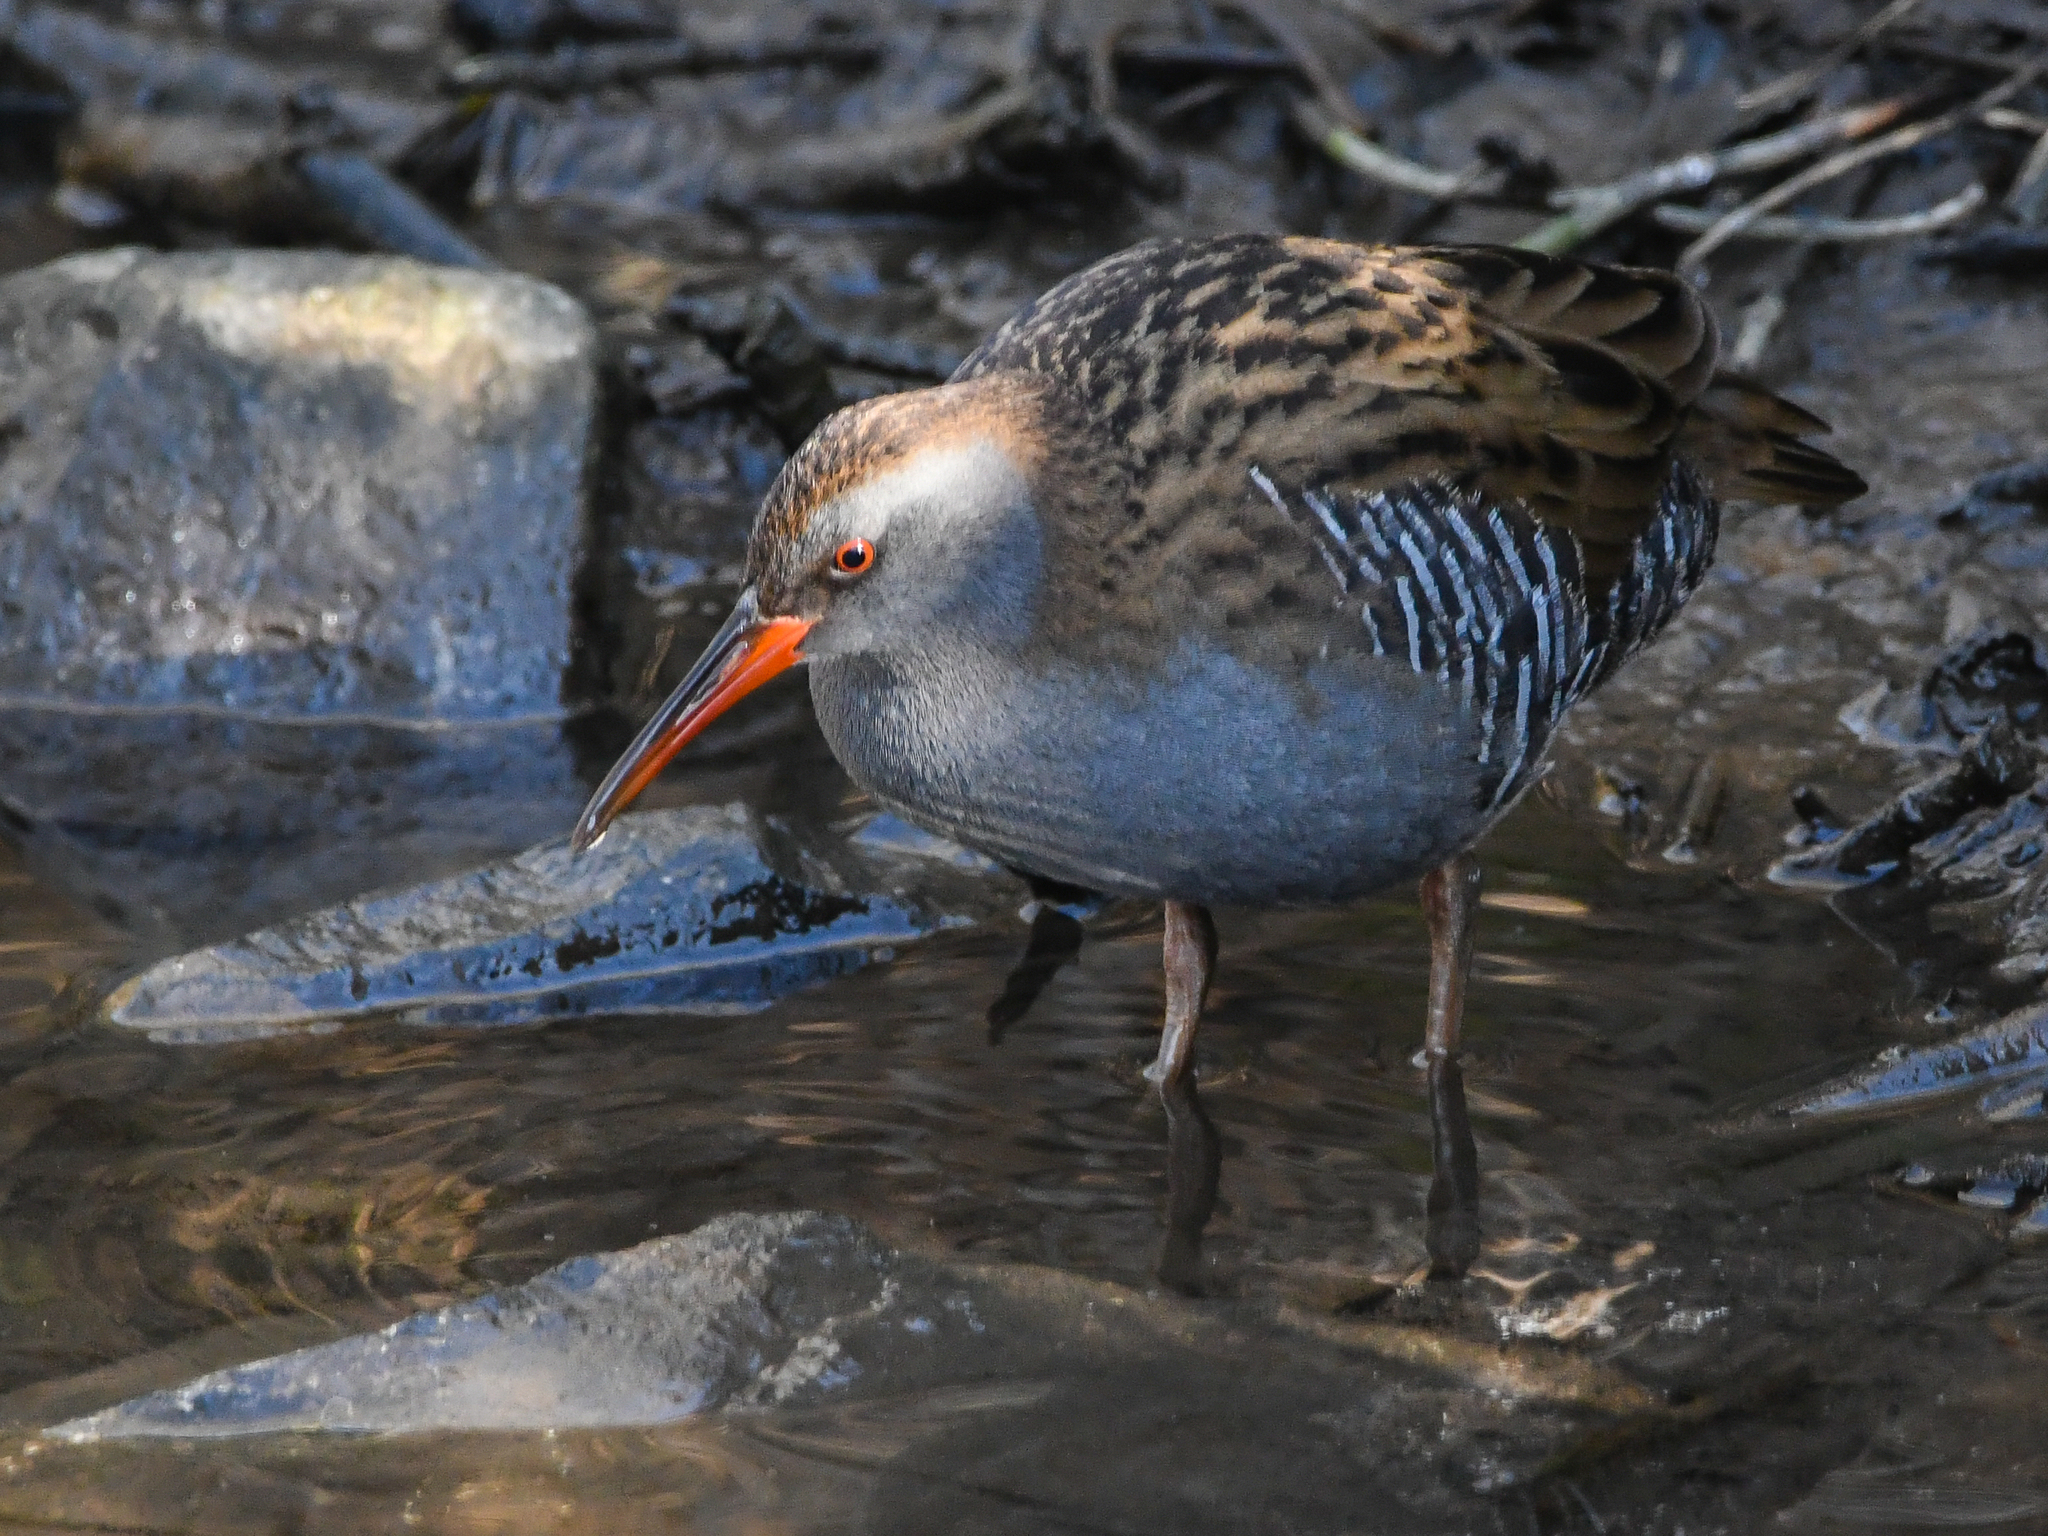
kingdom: Animalia
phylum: Chordata
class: Aves
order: Gruiformes
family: Rallidae
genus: Rallus
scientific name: Rallus aquaticus
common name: Water rail
